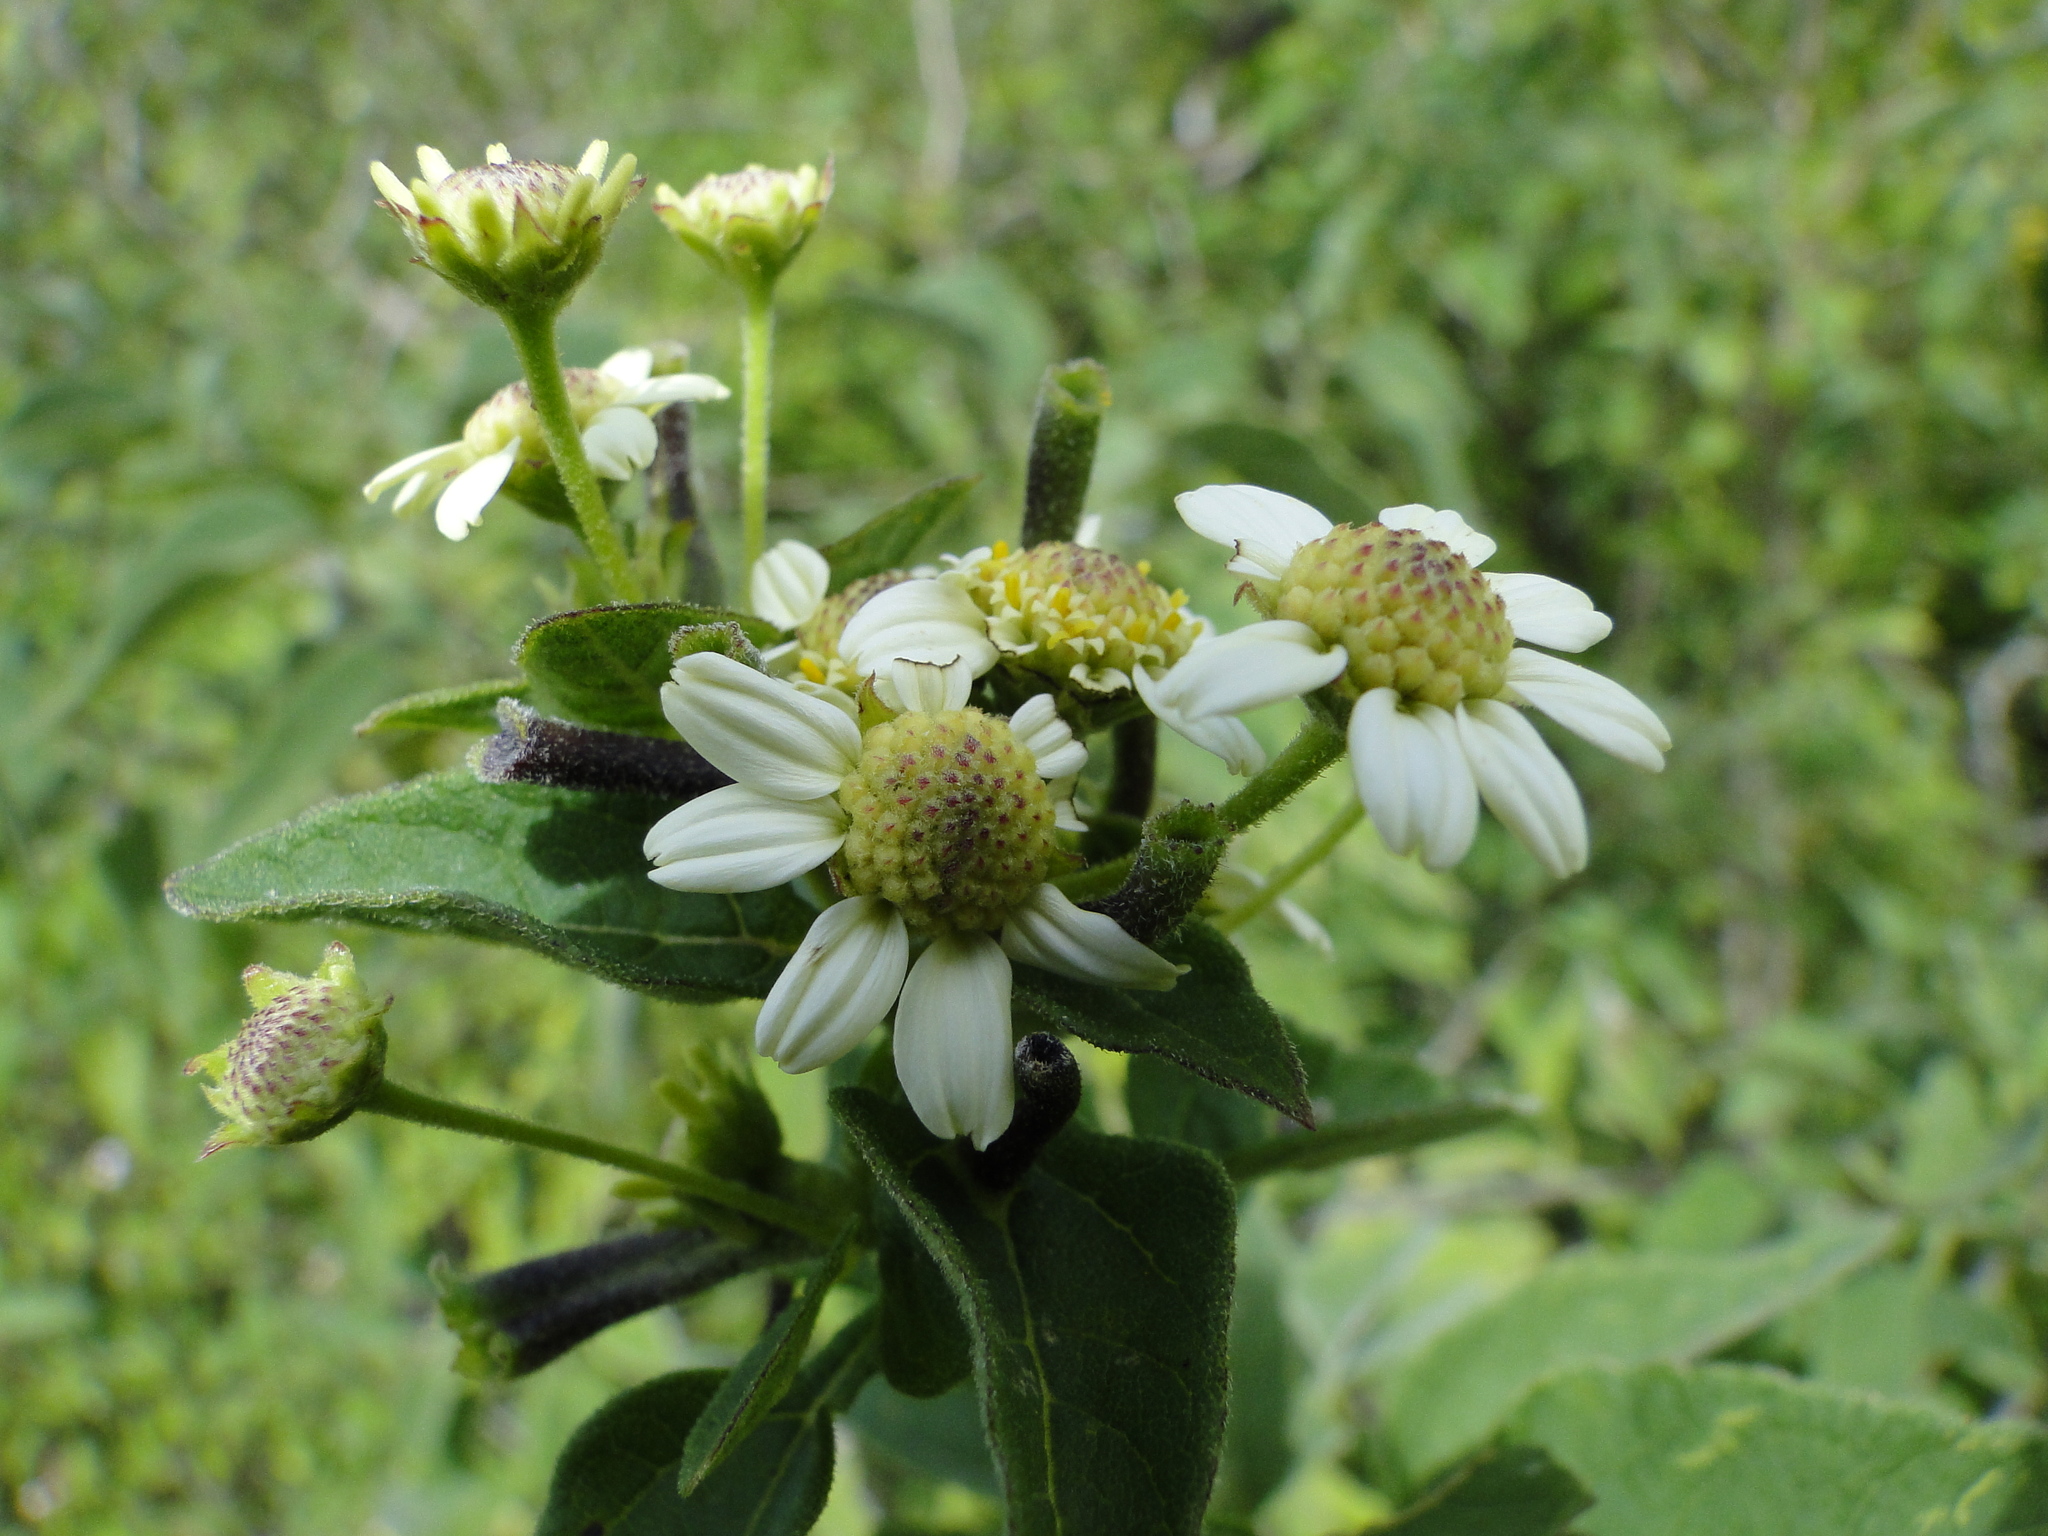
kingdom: Plantae
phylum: Tracheophyta
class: Magnoliopsida
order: Asterales
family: Asteraceae
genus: Montanoa
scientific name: Montanoa leucantha
